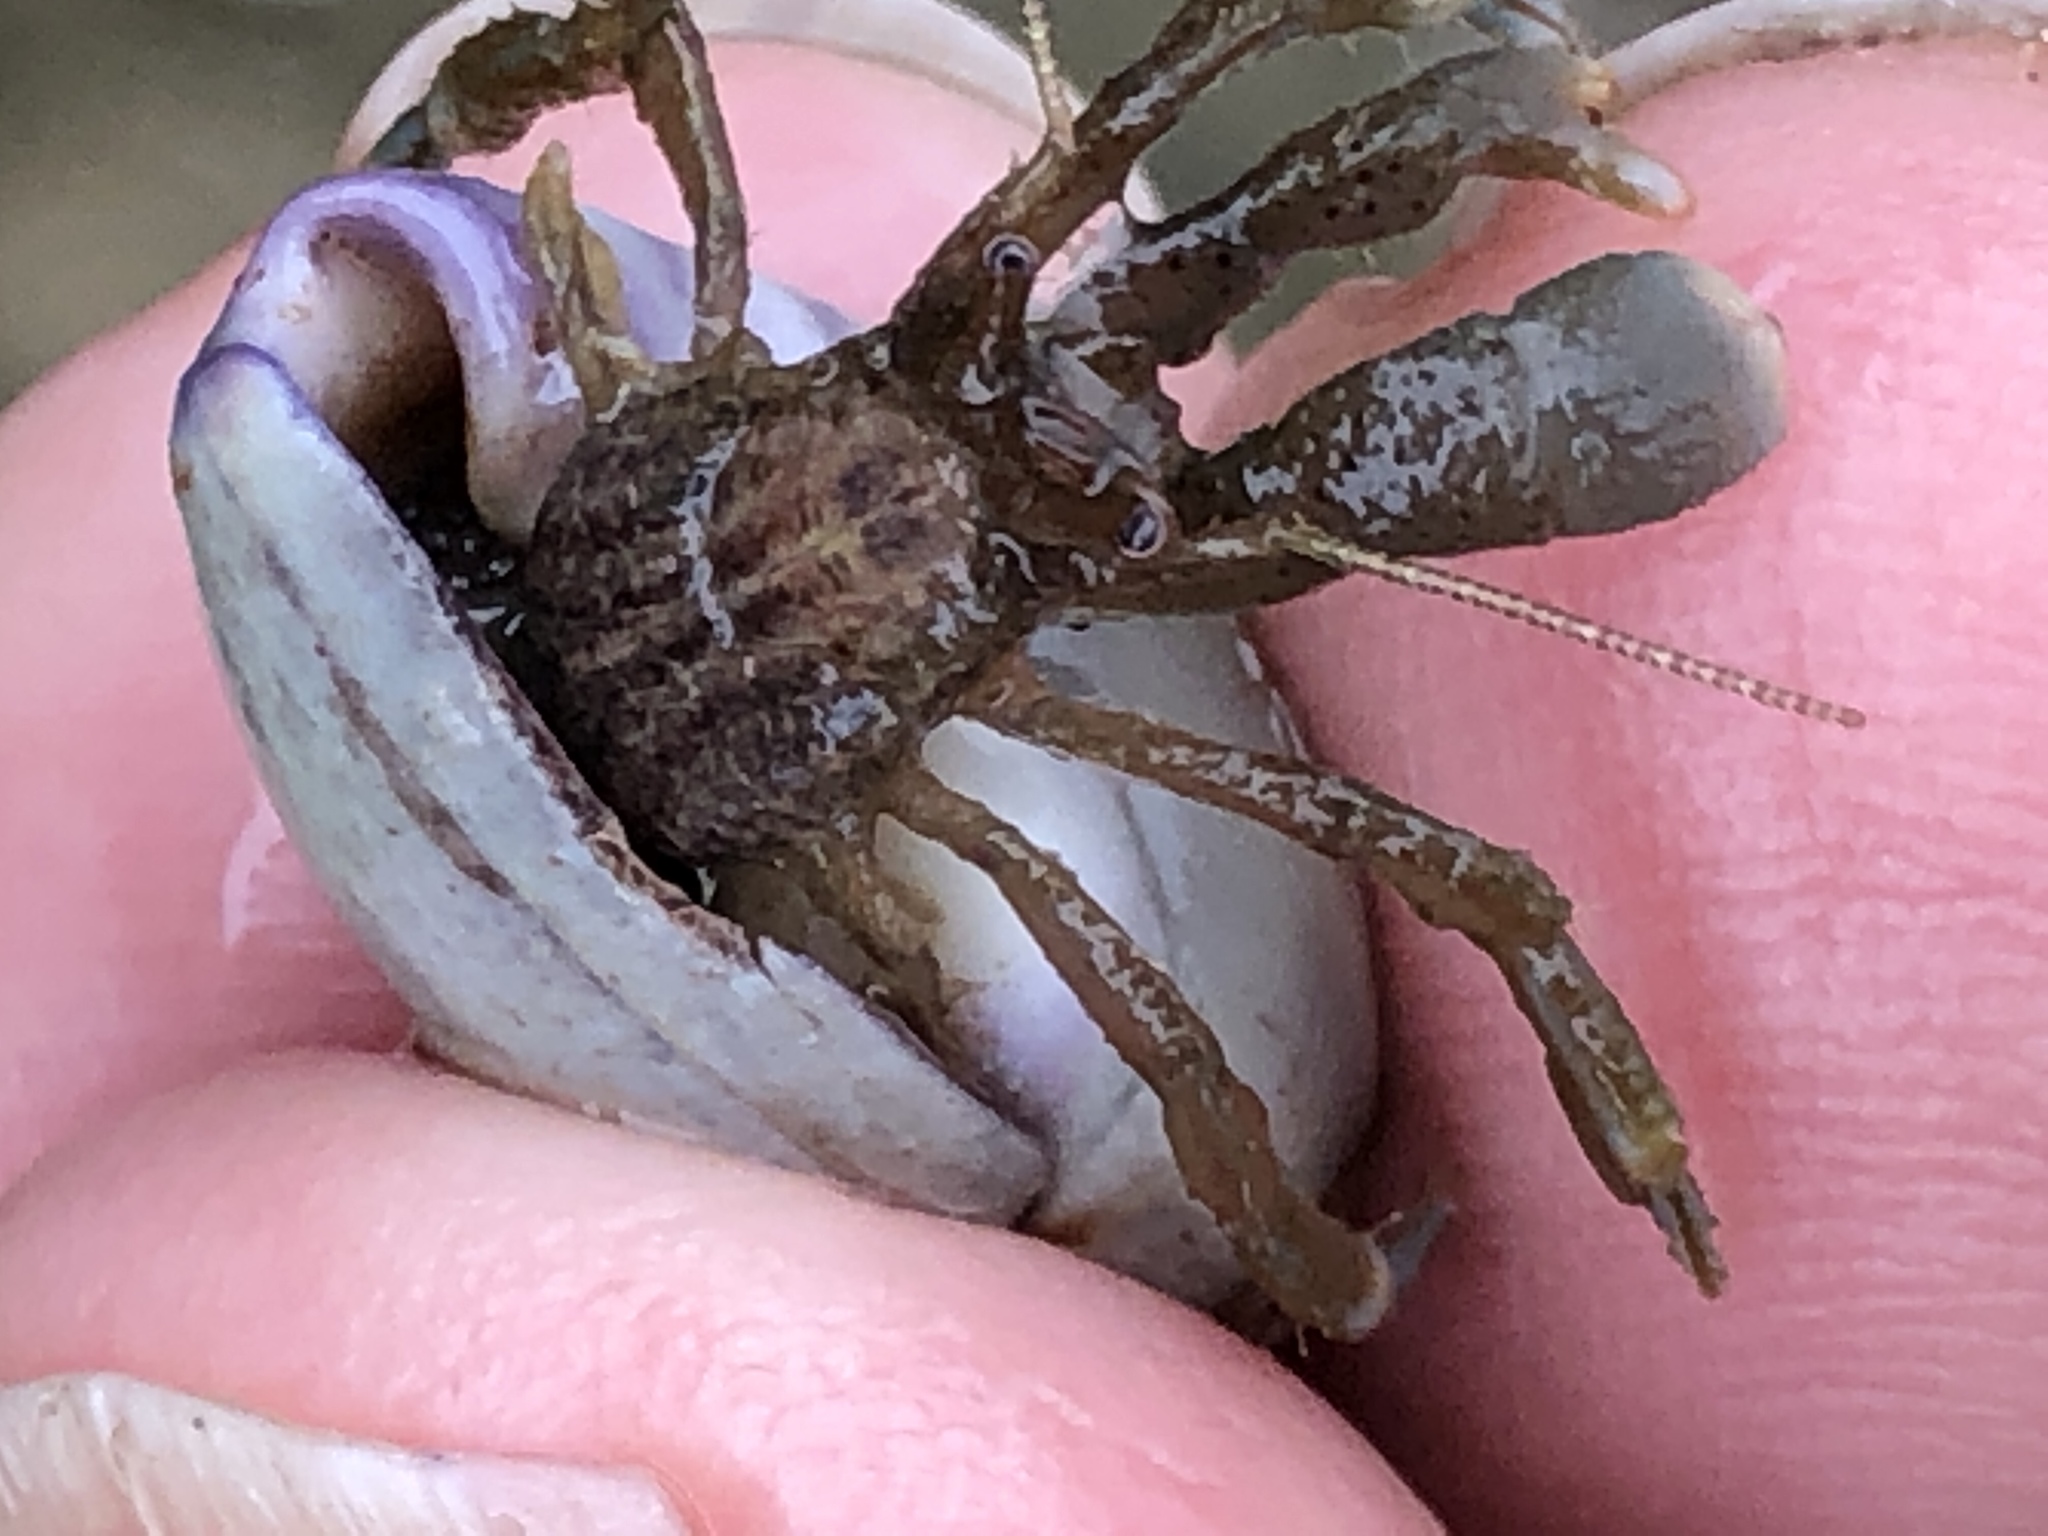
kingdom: Animalia
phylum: Arthropoda
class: Malacostraca
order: Decapoda
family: Paguridae
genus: Pagurus
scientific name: Pagurus venturensis
